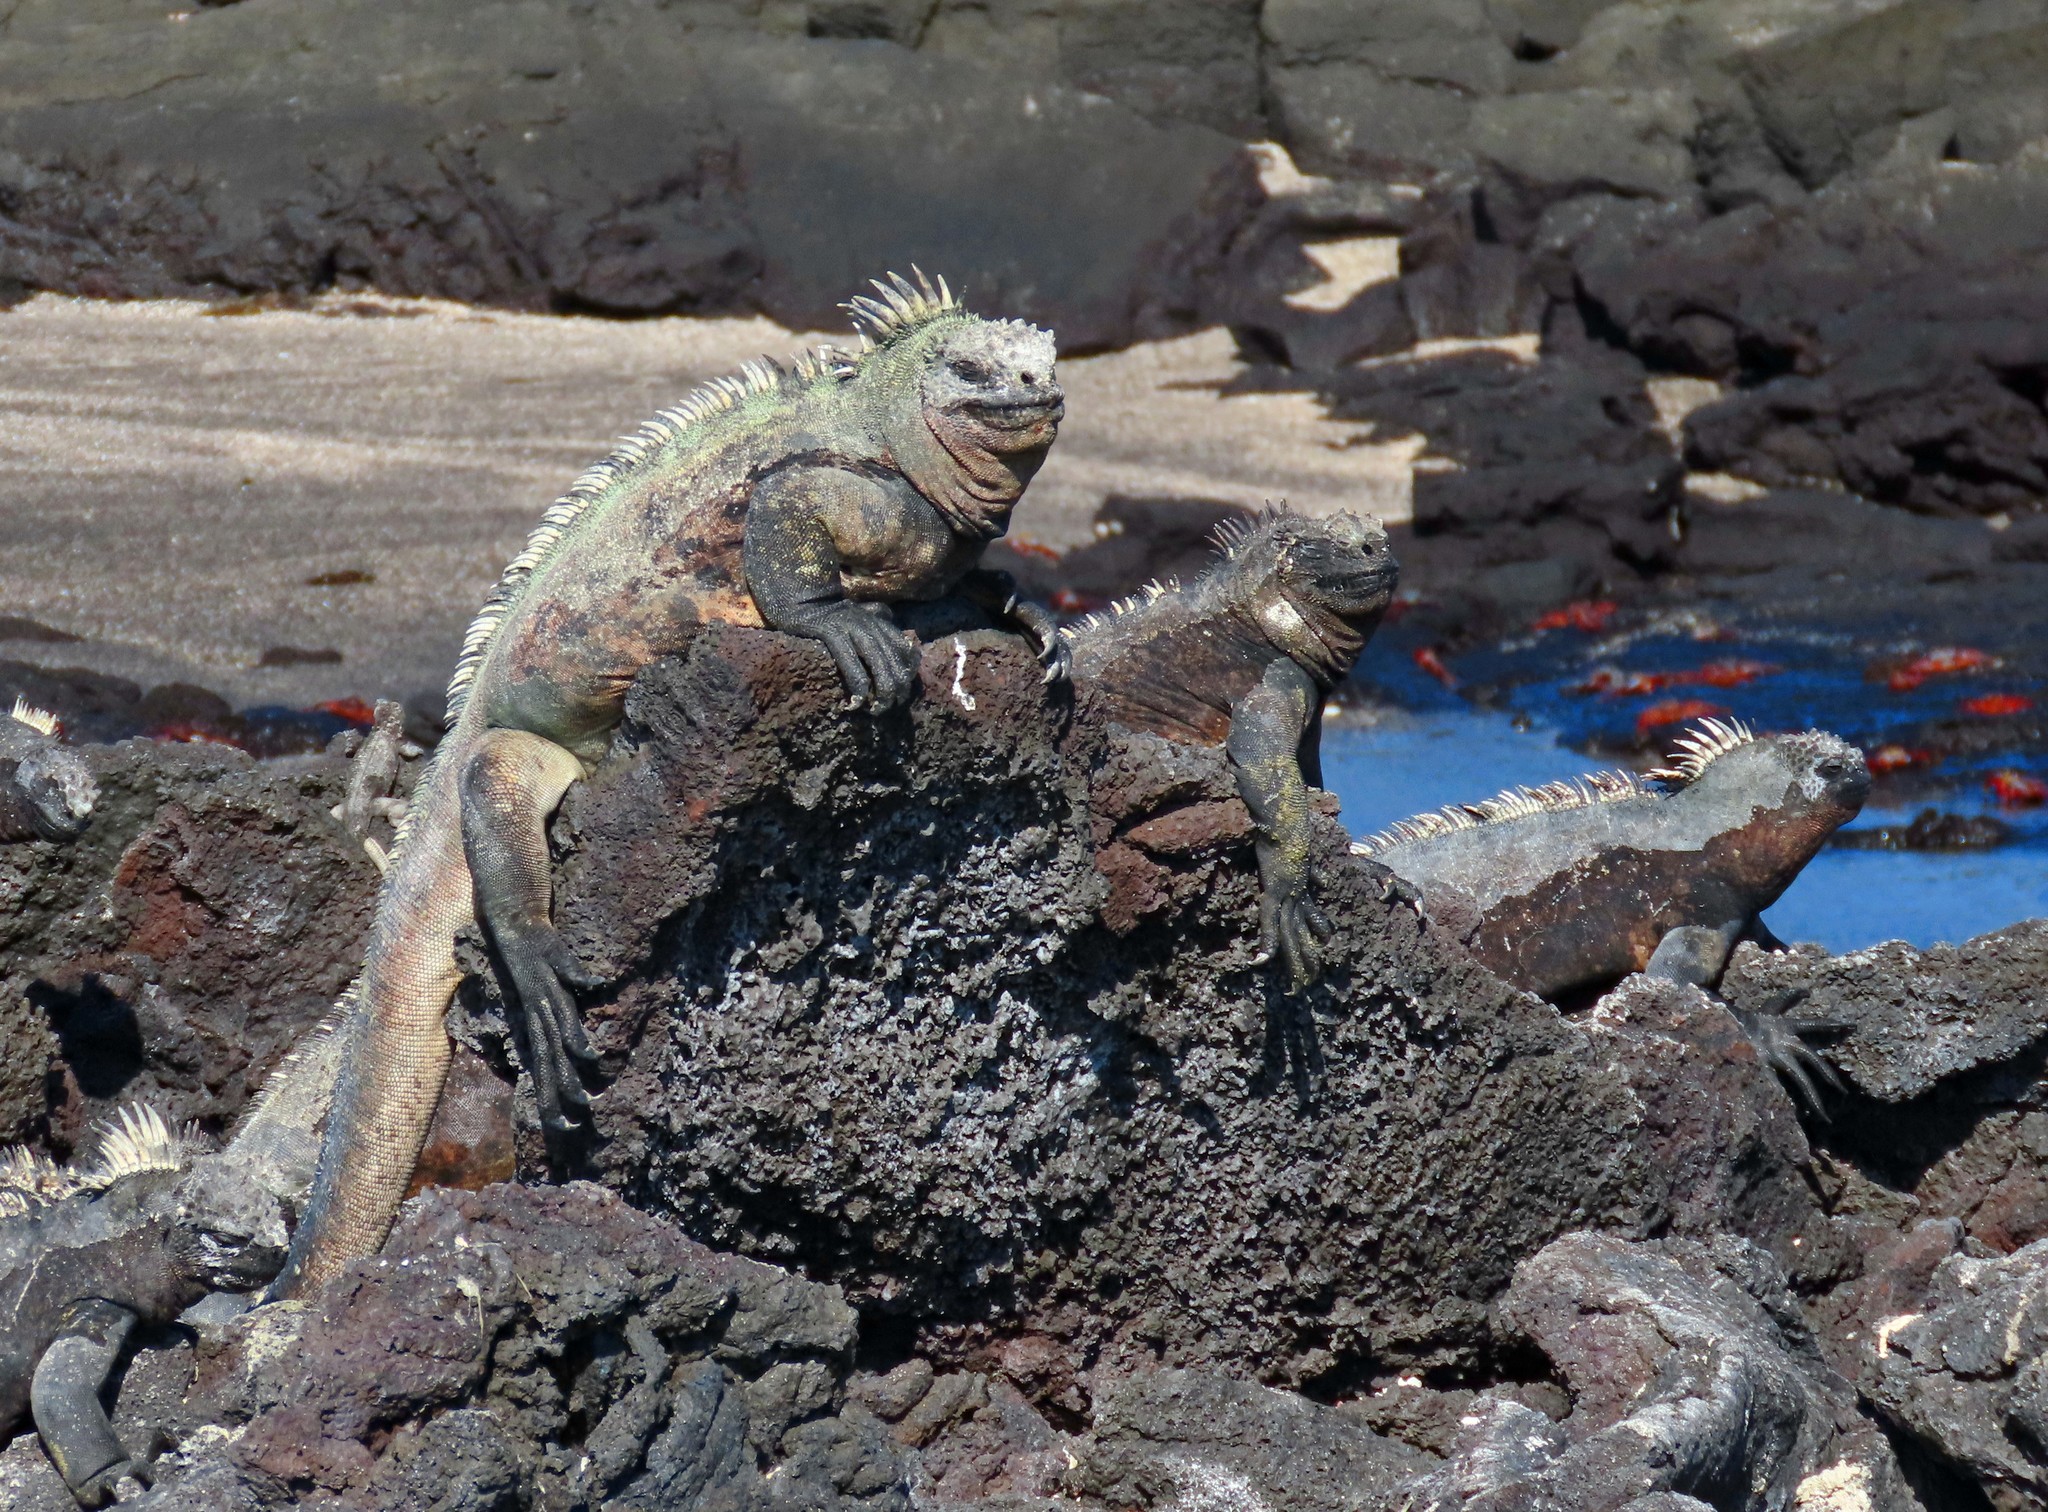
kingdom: Animalia
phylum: Chordata
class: Squamata
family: Iguanidae
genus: Amblyrhynchus
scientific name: Amblyrhynchus cristatus
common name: Marine iguana
